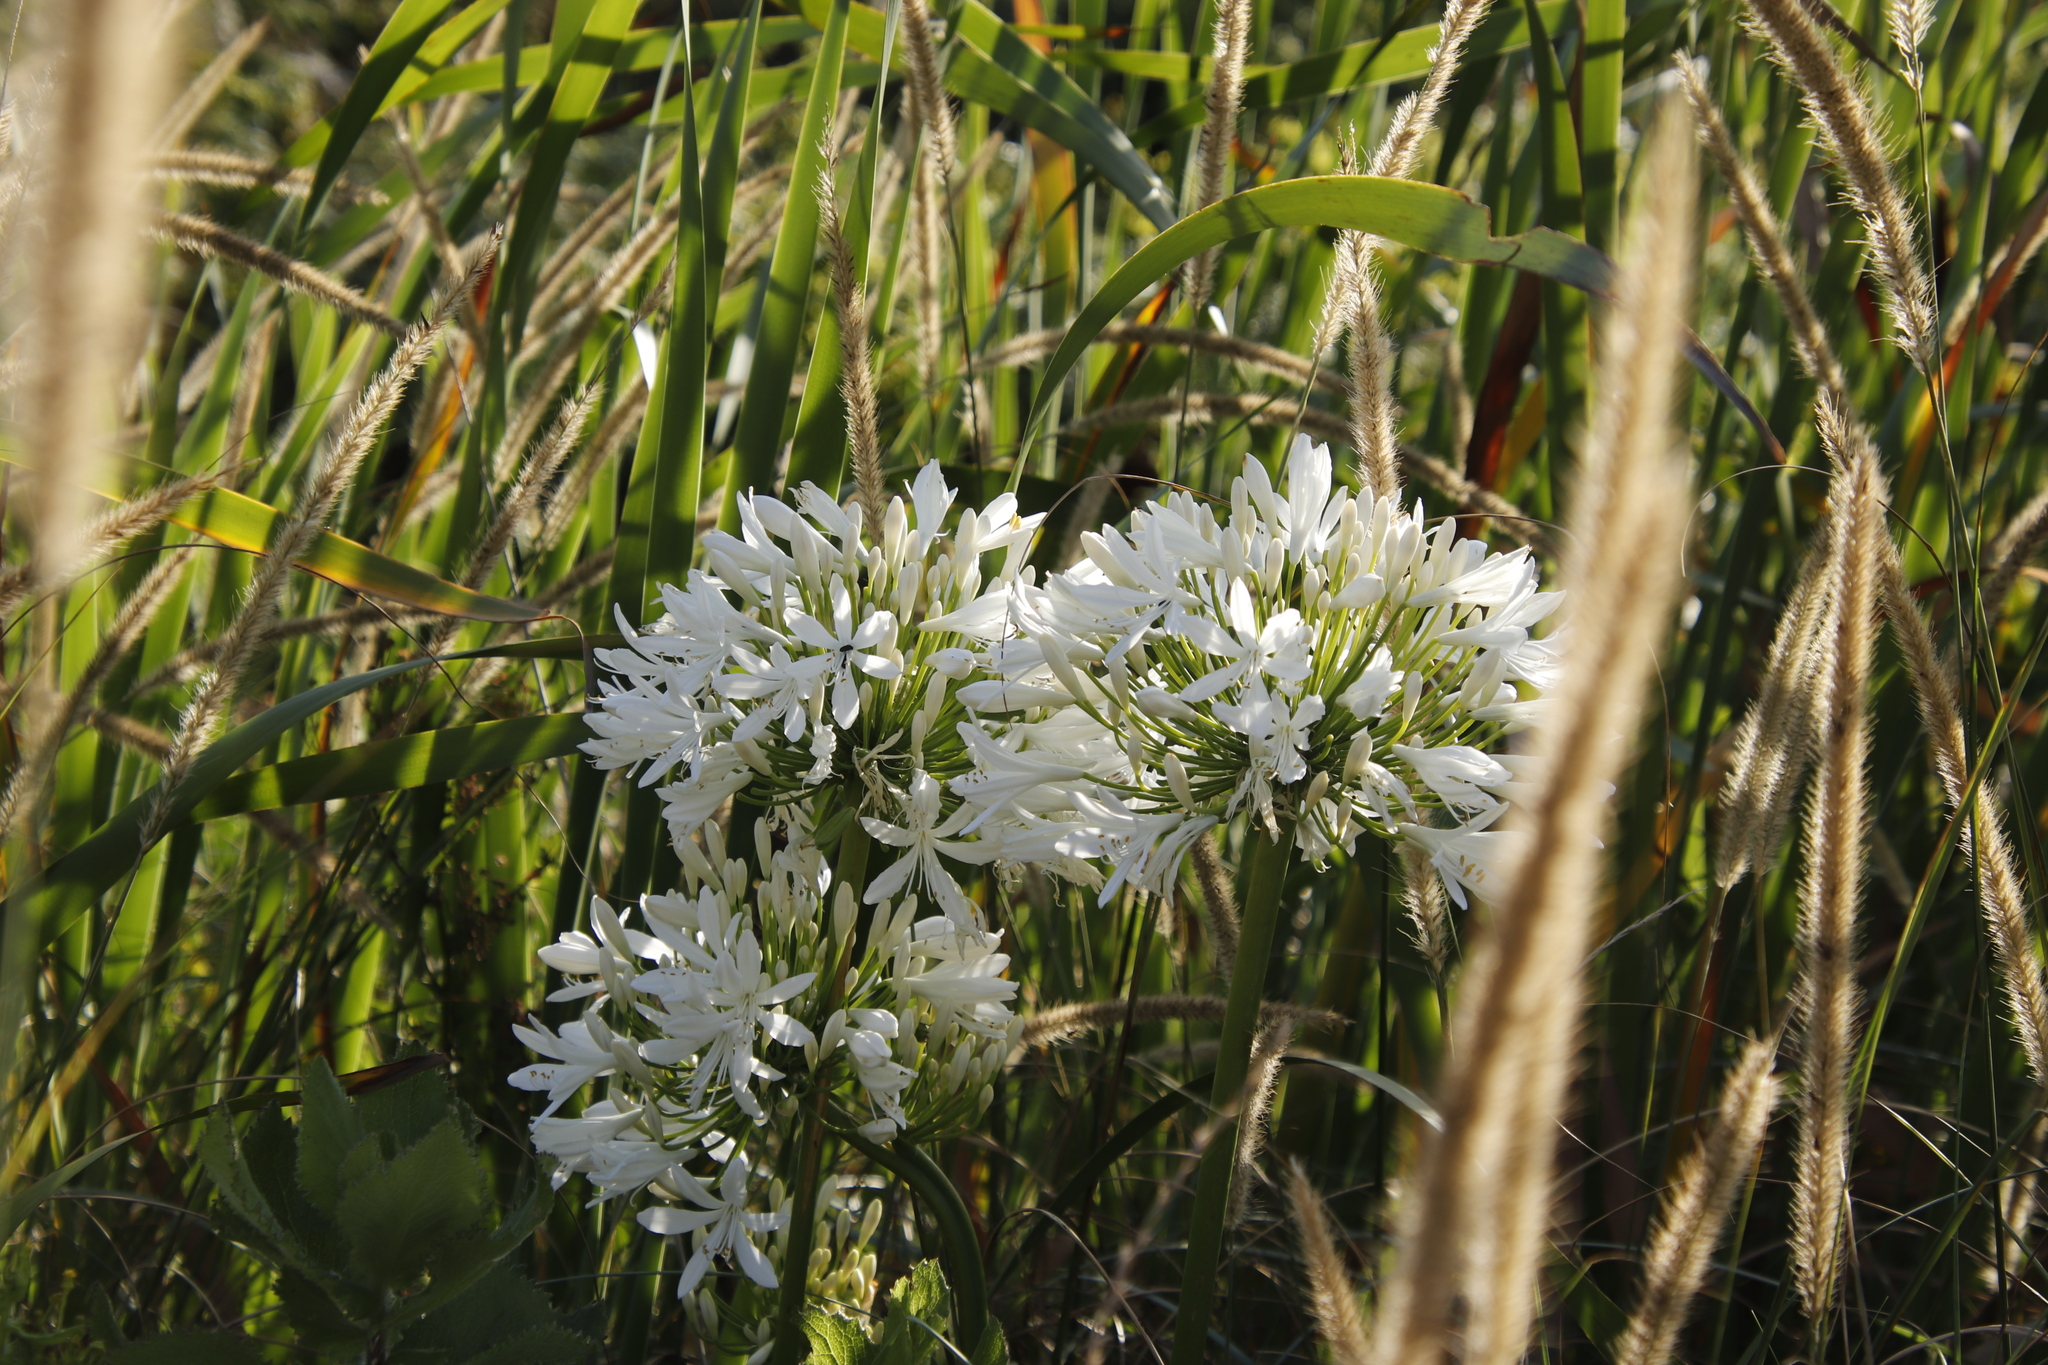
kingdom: Plantae
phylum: Tracheophyta
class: Liliopsida
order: Asparagales
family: Amaryllidaceae
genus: Agapanthus
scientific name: Agapanthus praecox
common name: African-lily
